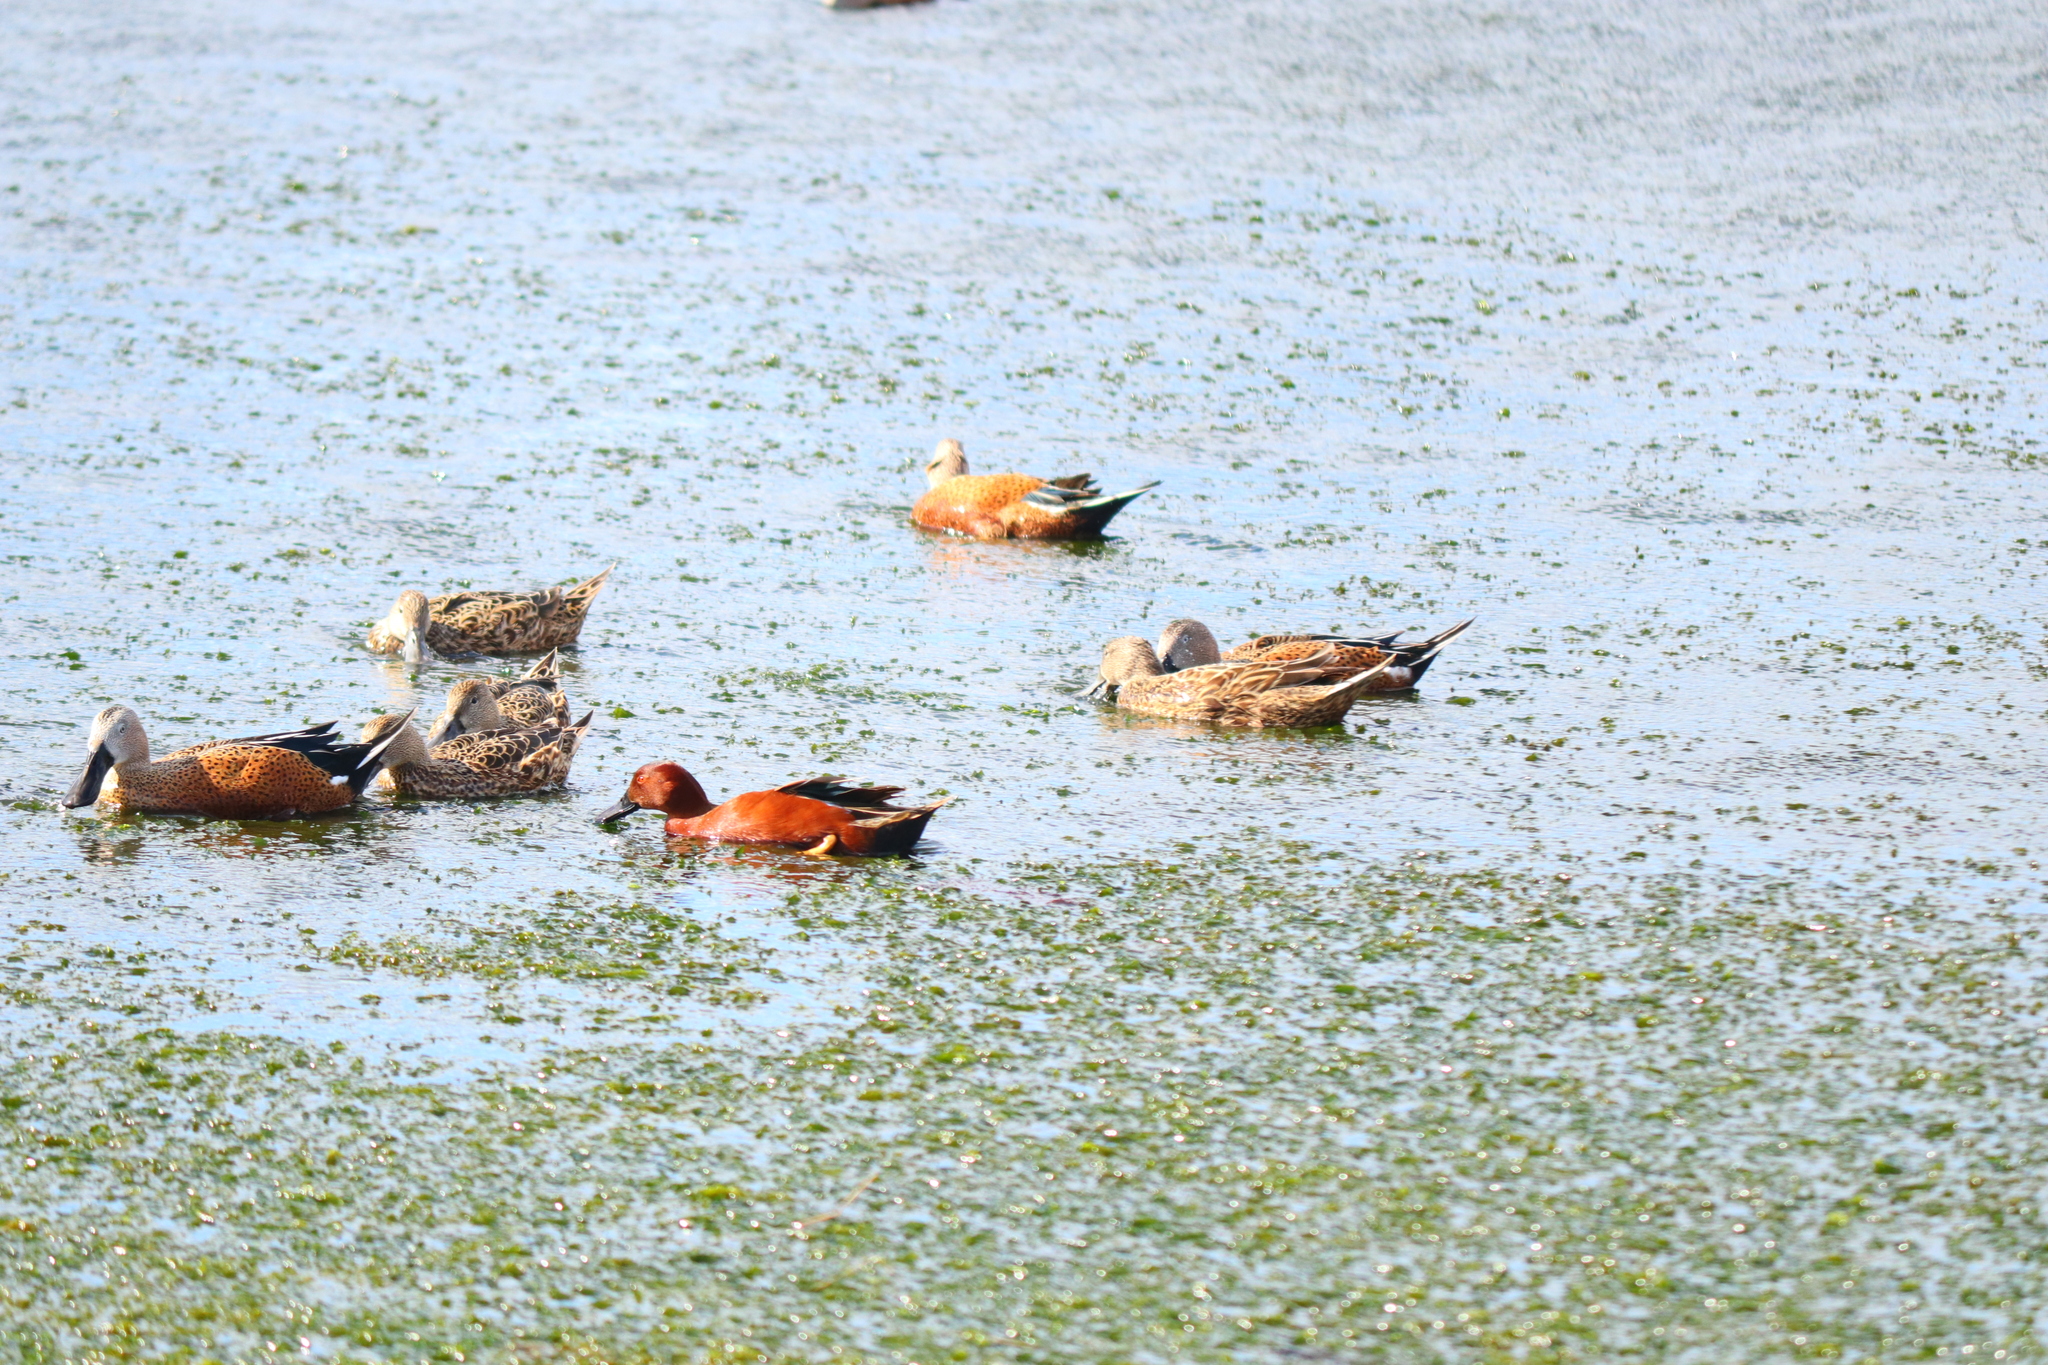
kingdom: Animalia
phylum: Chordata
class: Aves
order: Anseriformes
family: Anatidae
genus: Spatula
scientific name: Spatula cyanoptera
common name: Cinnamon teal
